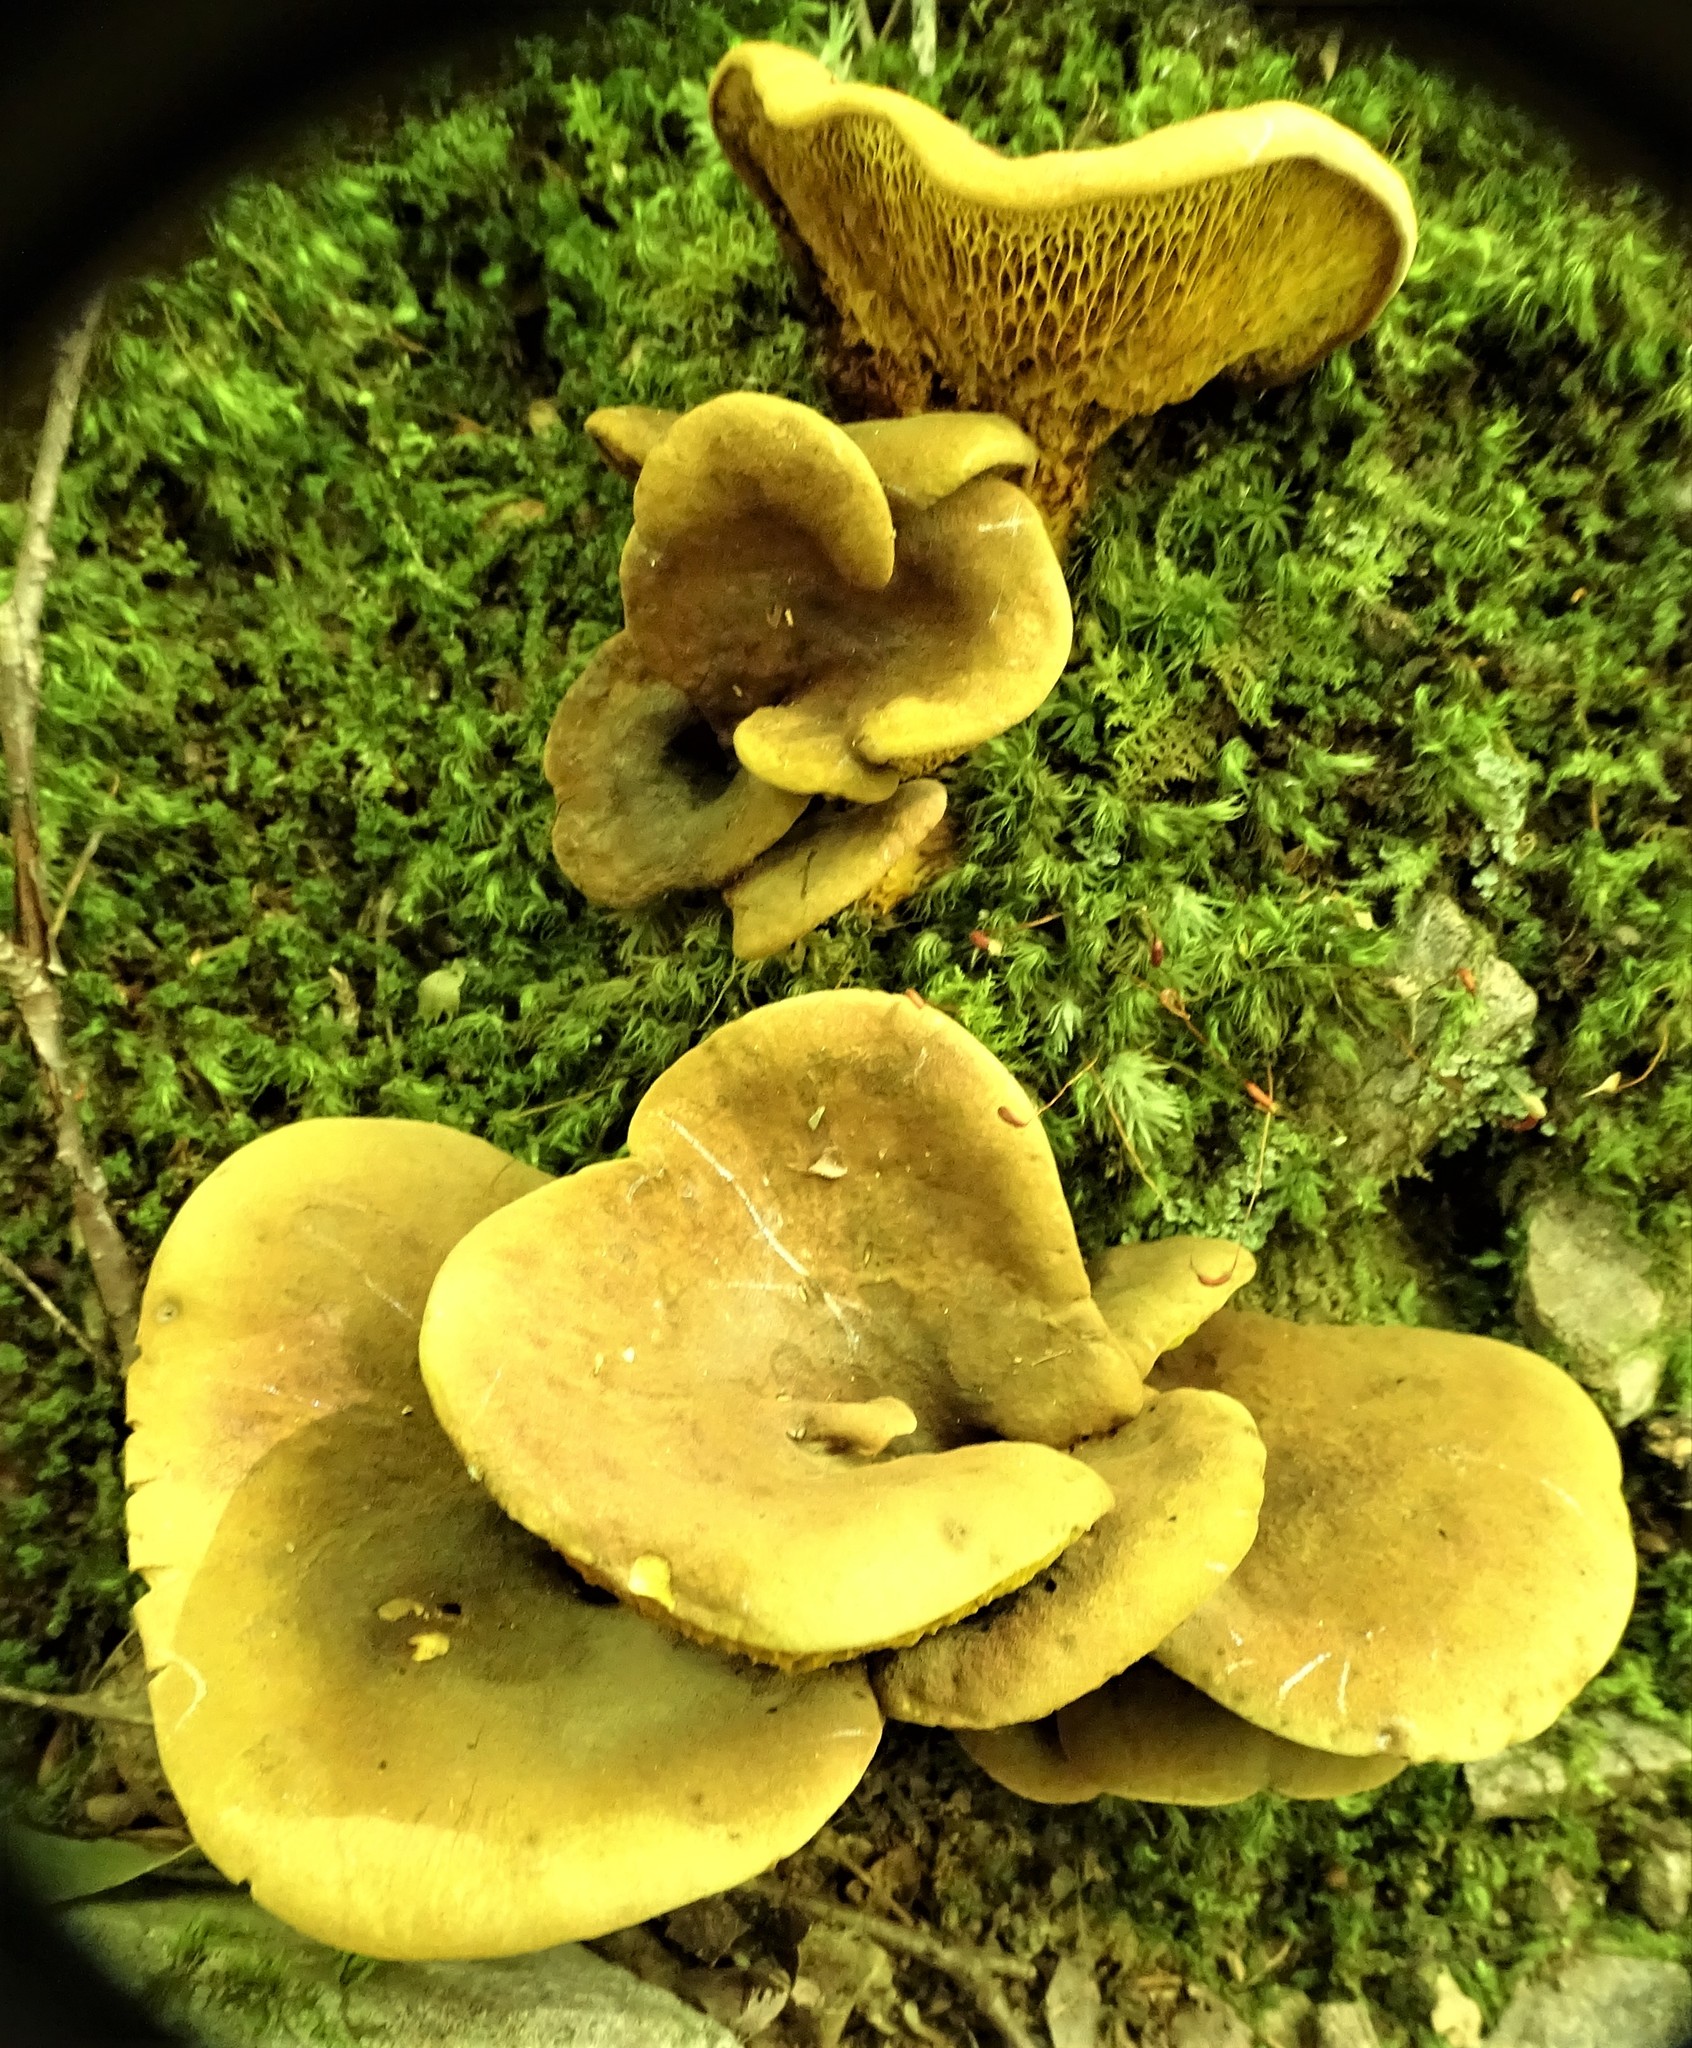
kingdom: Fungi
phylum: Basidiomycota
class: Agaricomycetes
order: Boletales
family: Boletinellaceae
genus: Boletinellus
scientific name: Boletinellus merulioides
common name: Ash tree bolete
